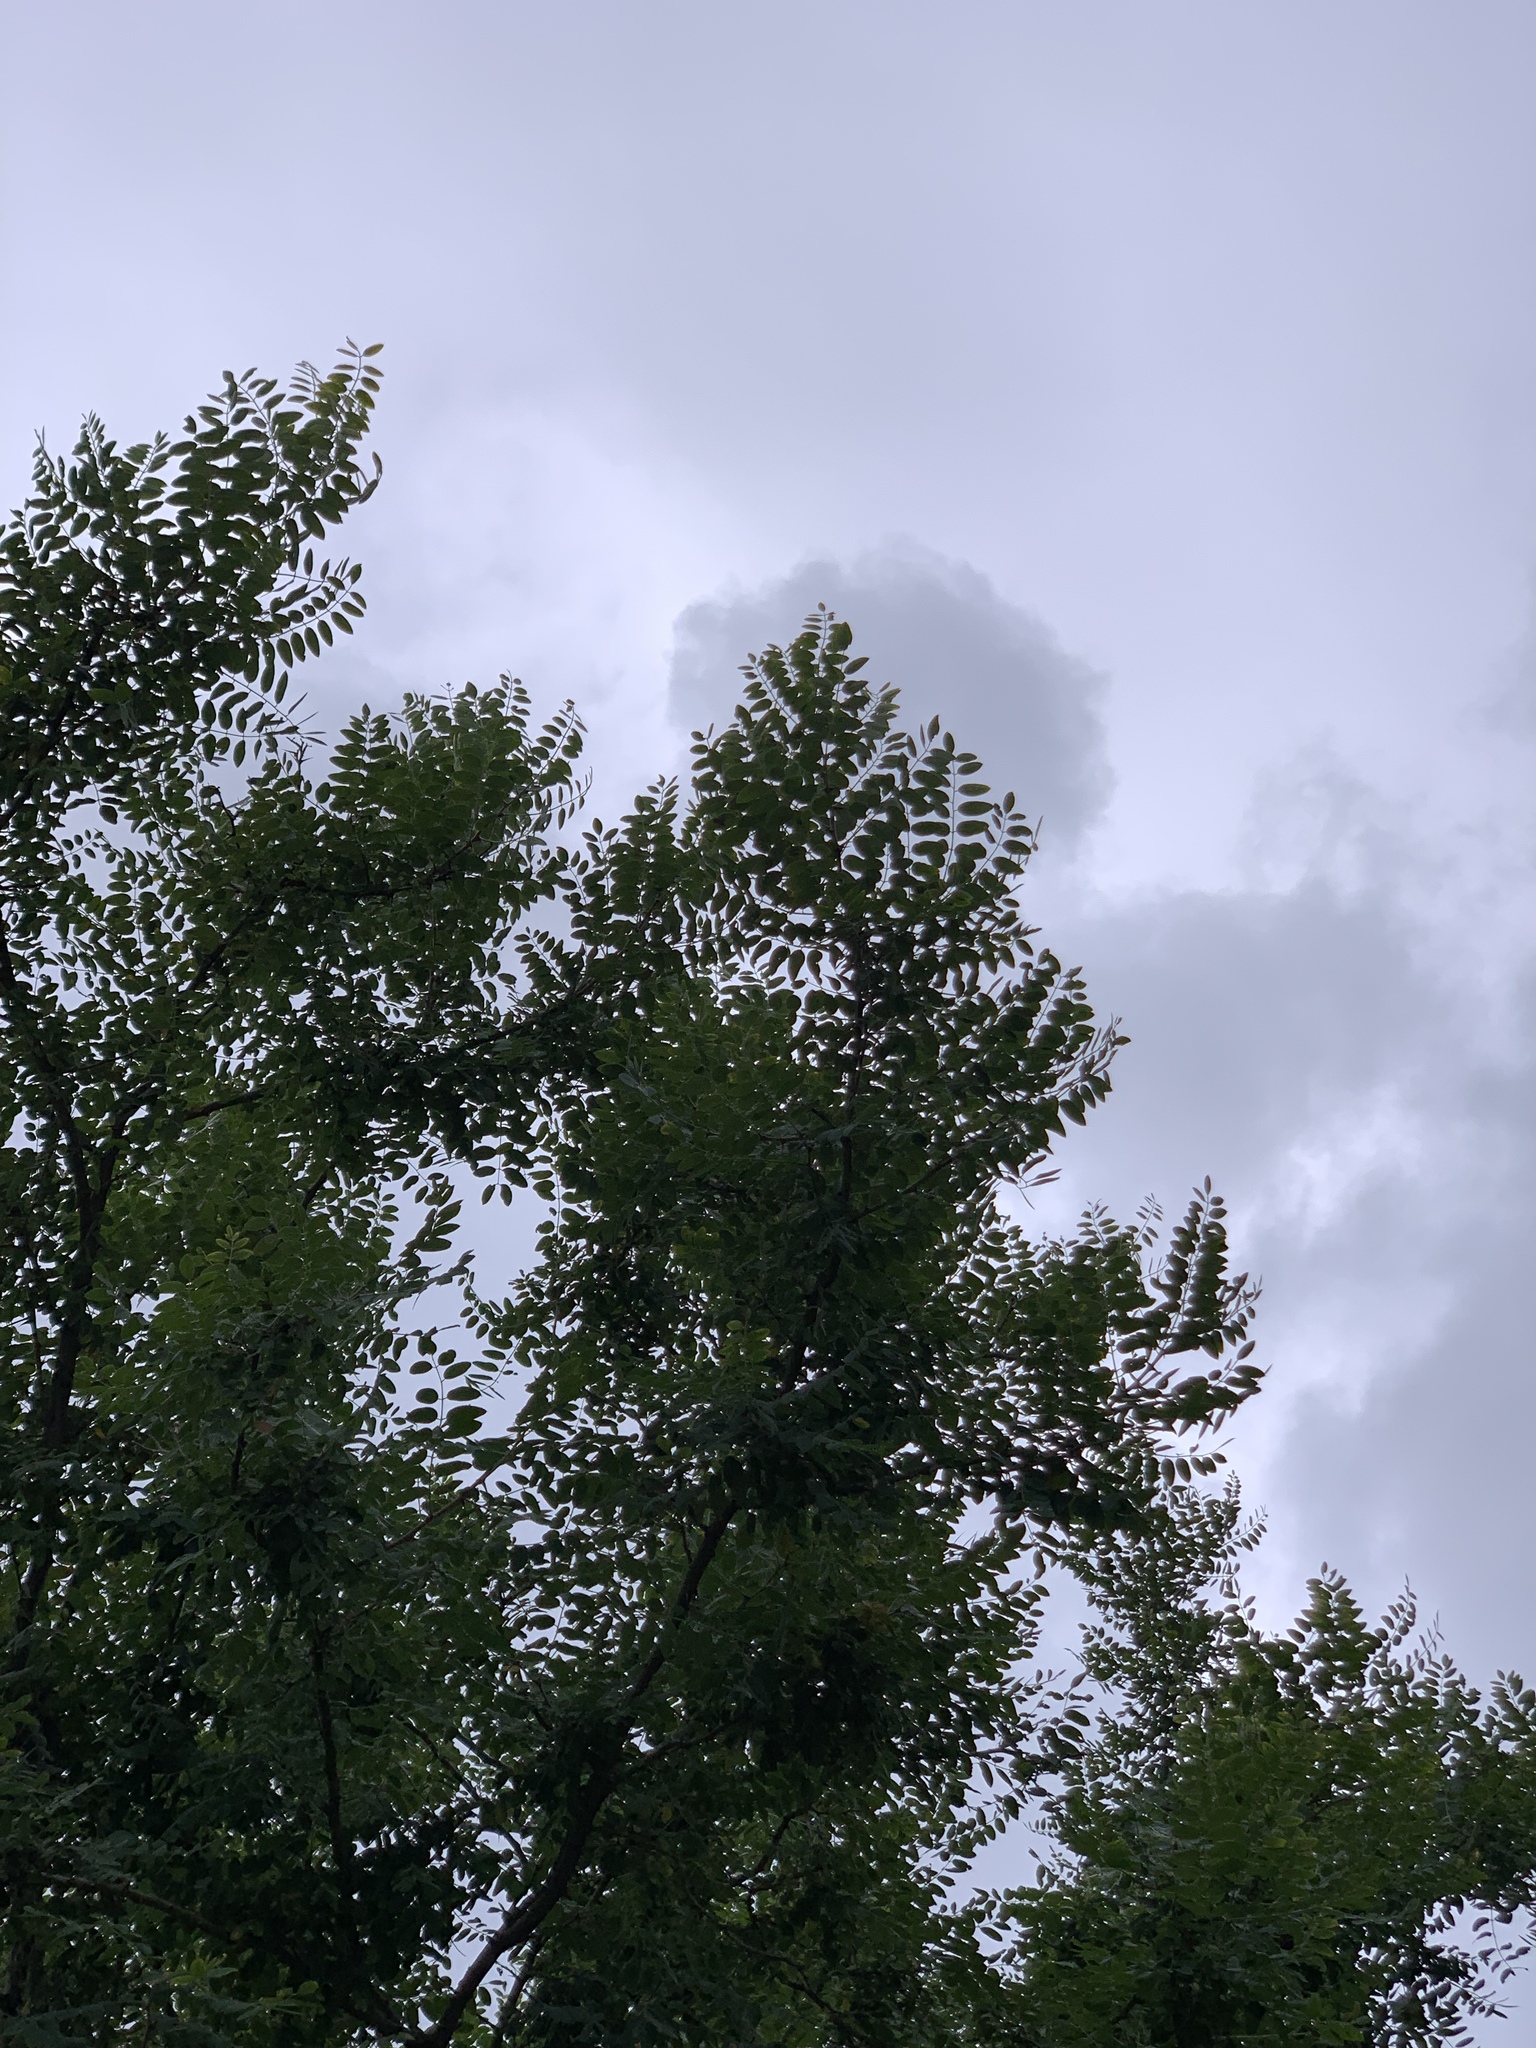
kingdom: Plantae
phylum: Tracheophyta
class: Magnoliopsida
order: Fabales
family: Fabaceae
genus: Robinia
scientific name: Robinia neomexicana
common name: New mexico locust
